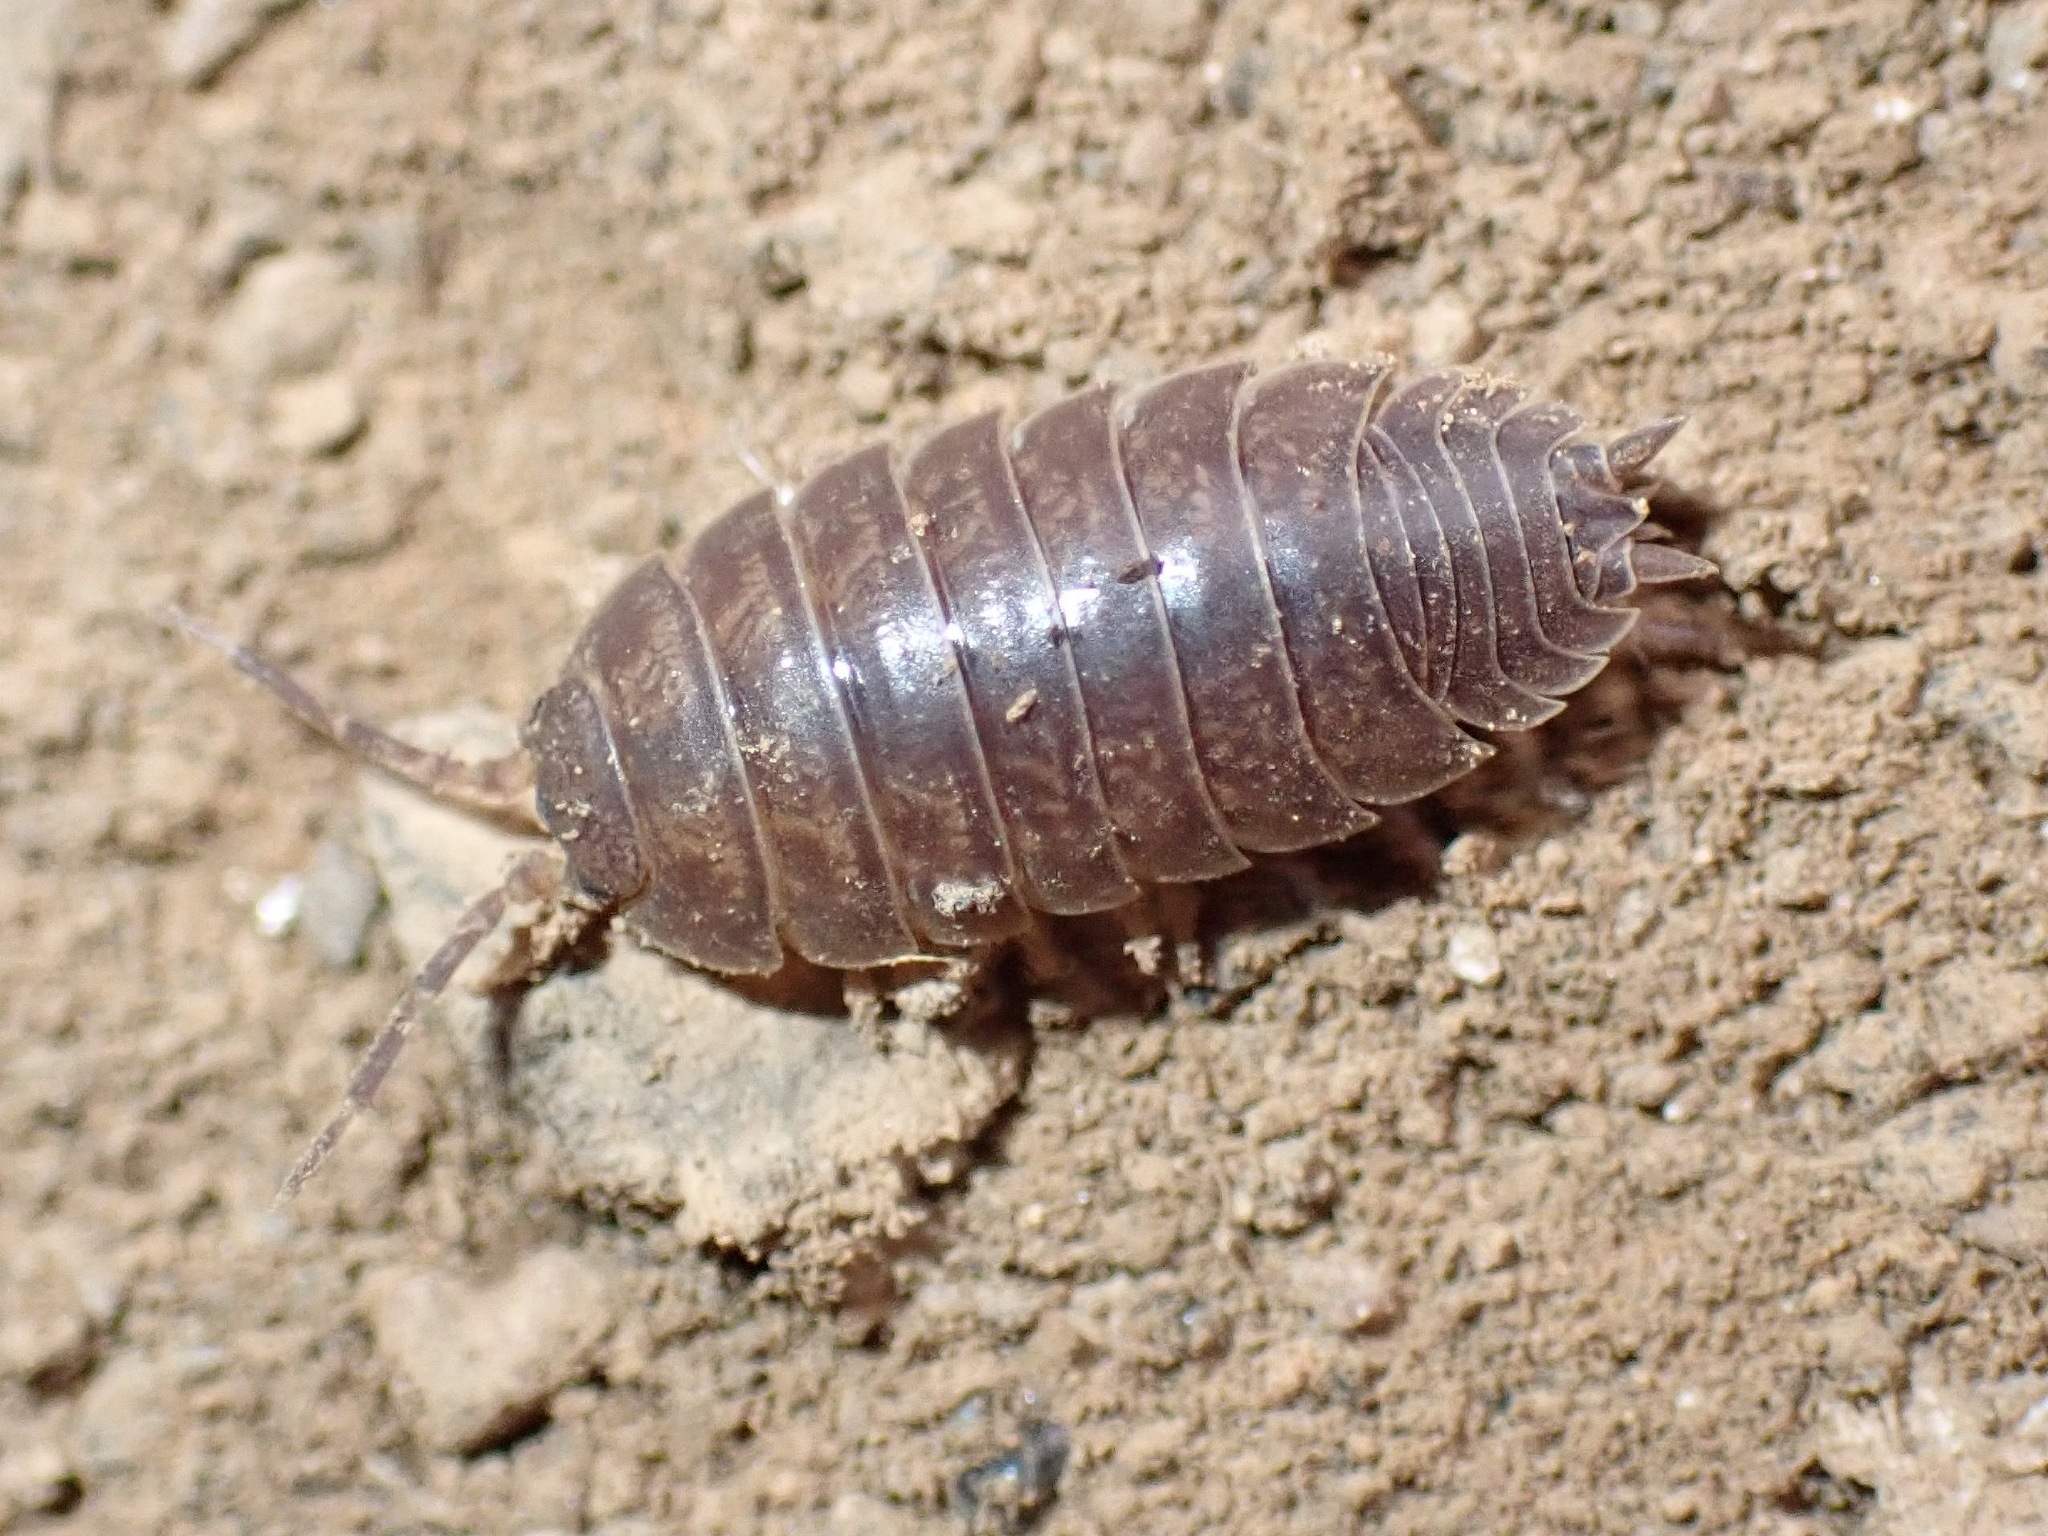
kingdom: Animalia
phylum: Arthropoda
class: Malacostraca
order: Isopoda
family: Porcellionidae
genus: Porcellio
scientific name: Porcellio laevis
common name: Swift woodlouse
